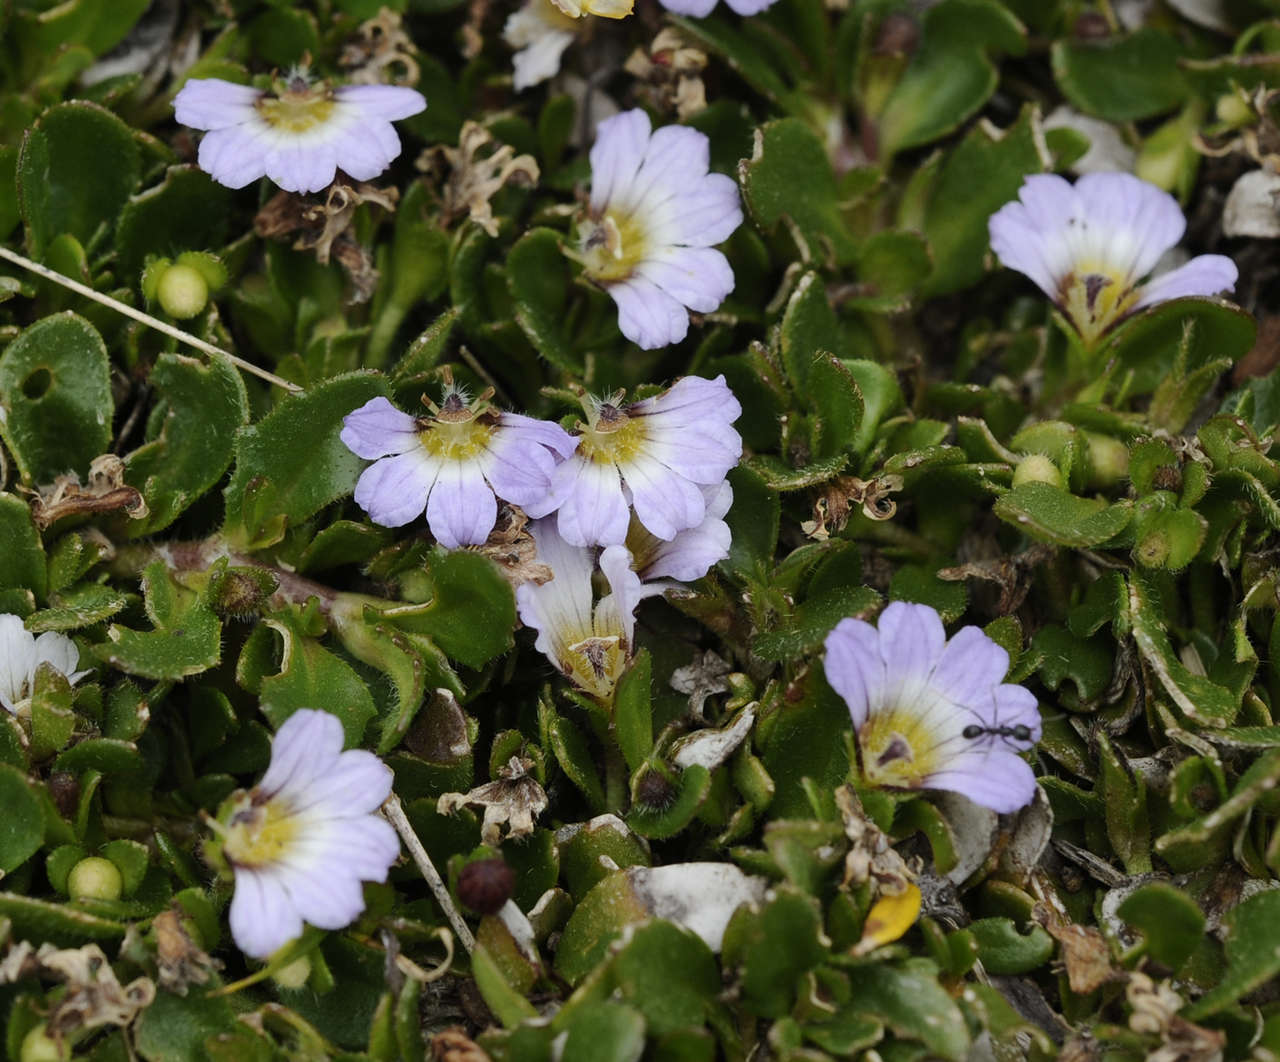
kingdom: Plantae
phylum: Tracheophyta
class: Magnoliopsida
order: Asterales
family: Goodeniaceae
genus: Scaevola
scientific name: Scaevola hookeri
